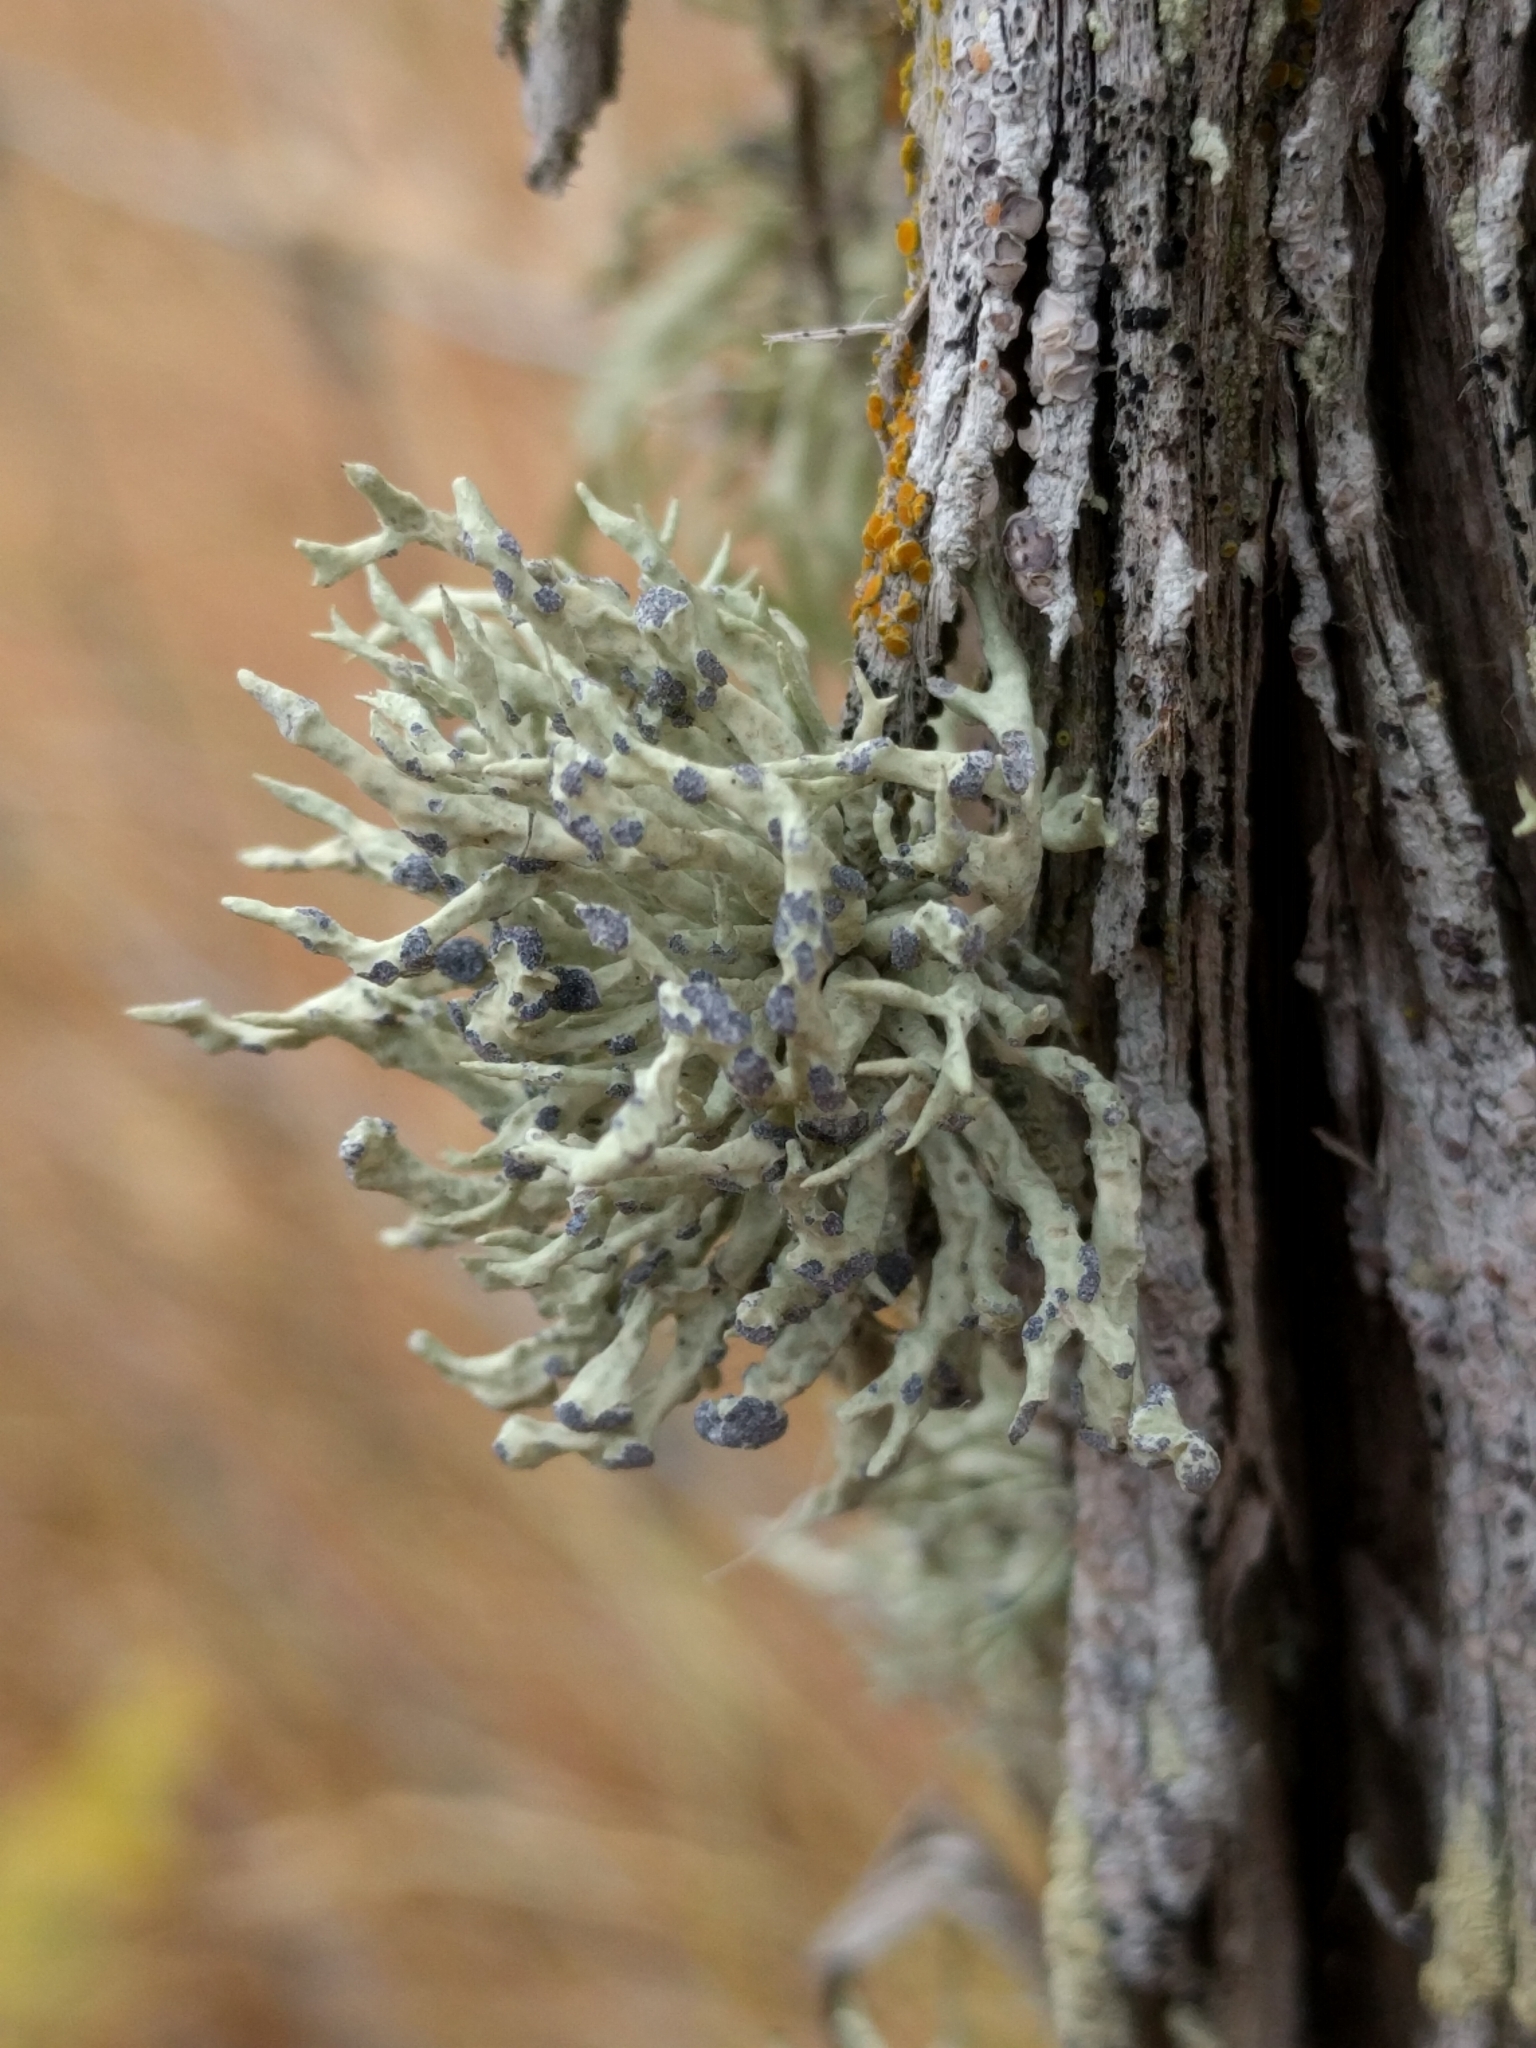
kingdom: Fungi
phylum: Ascomycota
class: Lecanoromycetes
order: Lecanorales
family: Ramalinaceae
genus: Niebla
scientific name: Niebla cephalota
